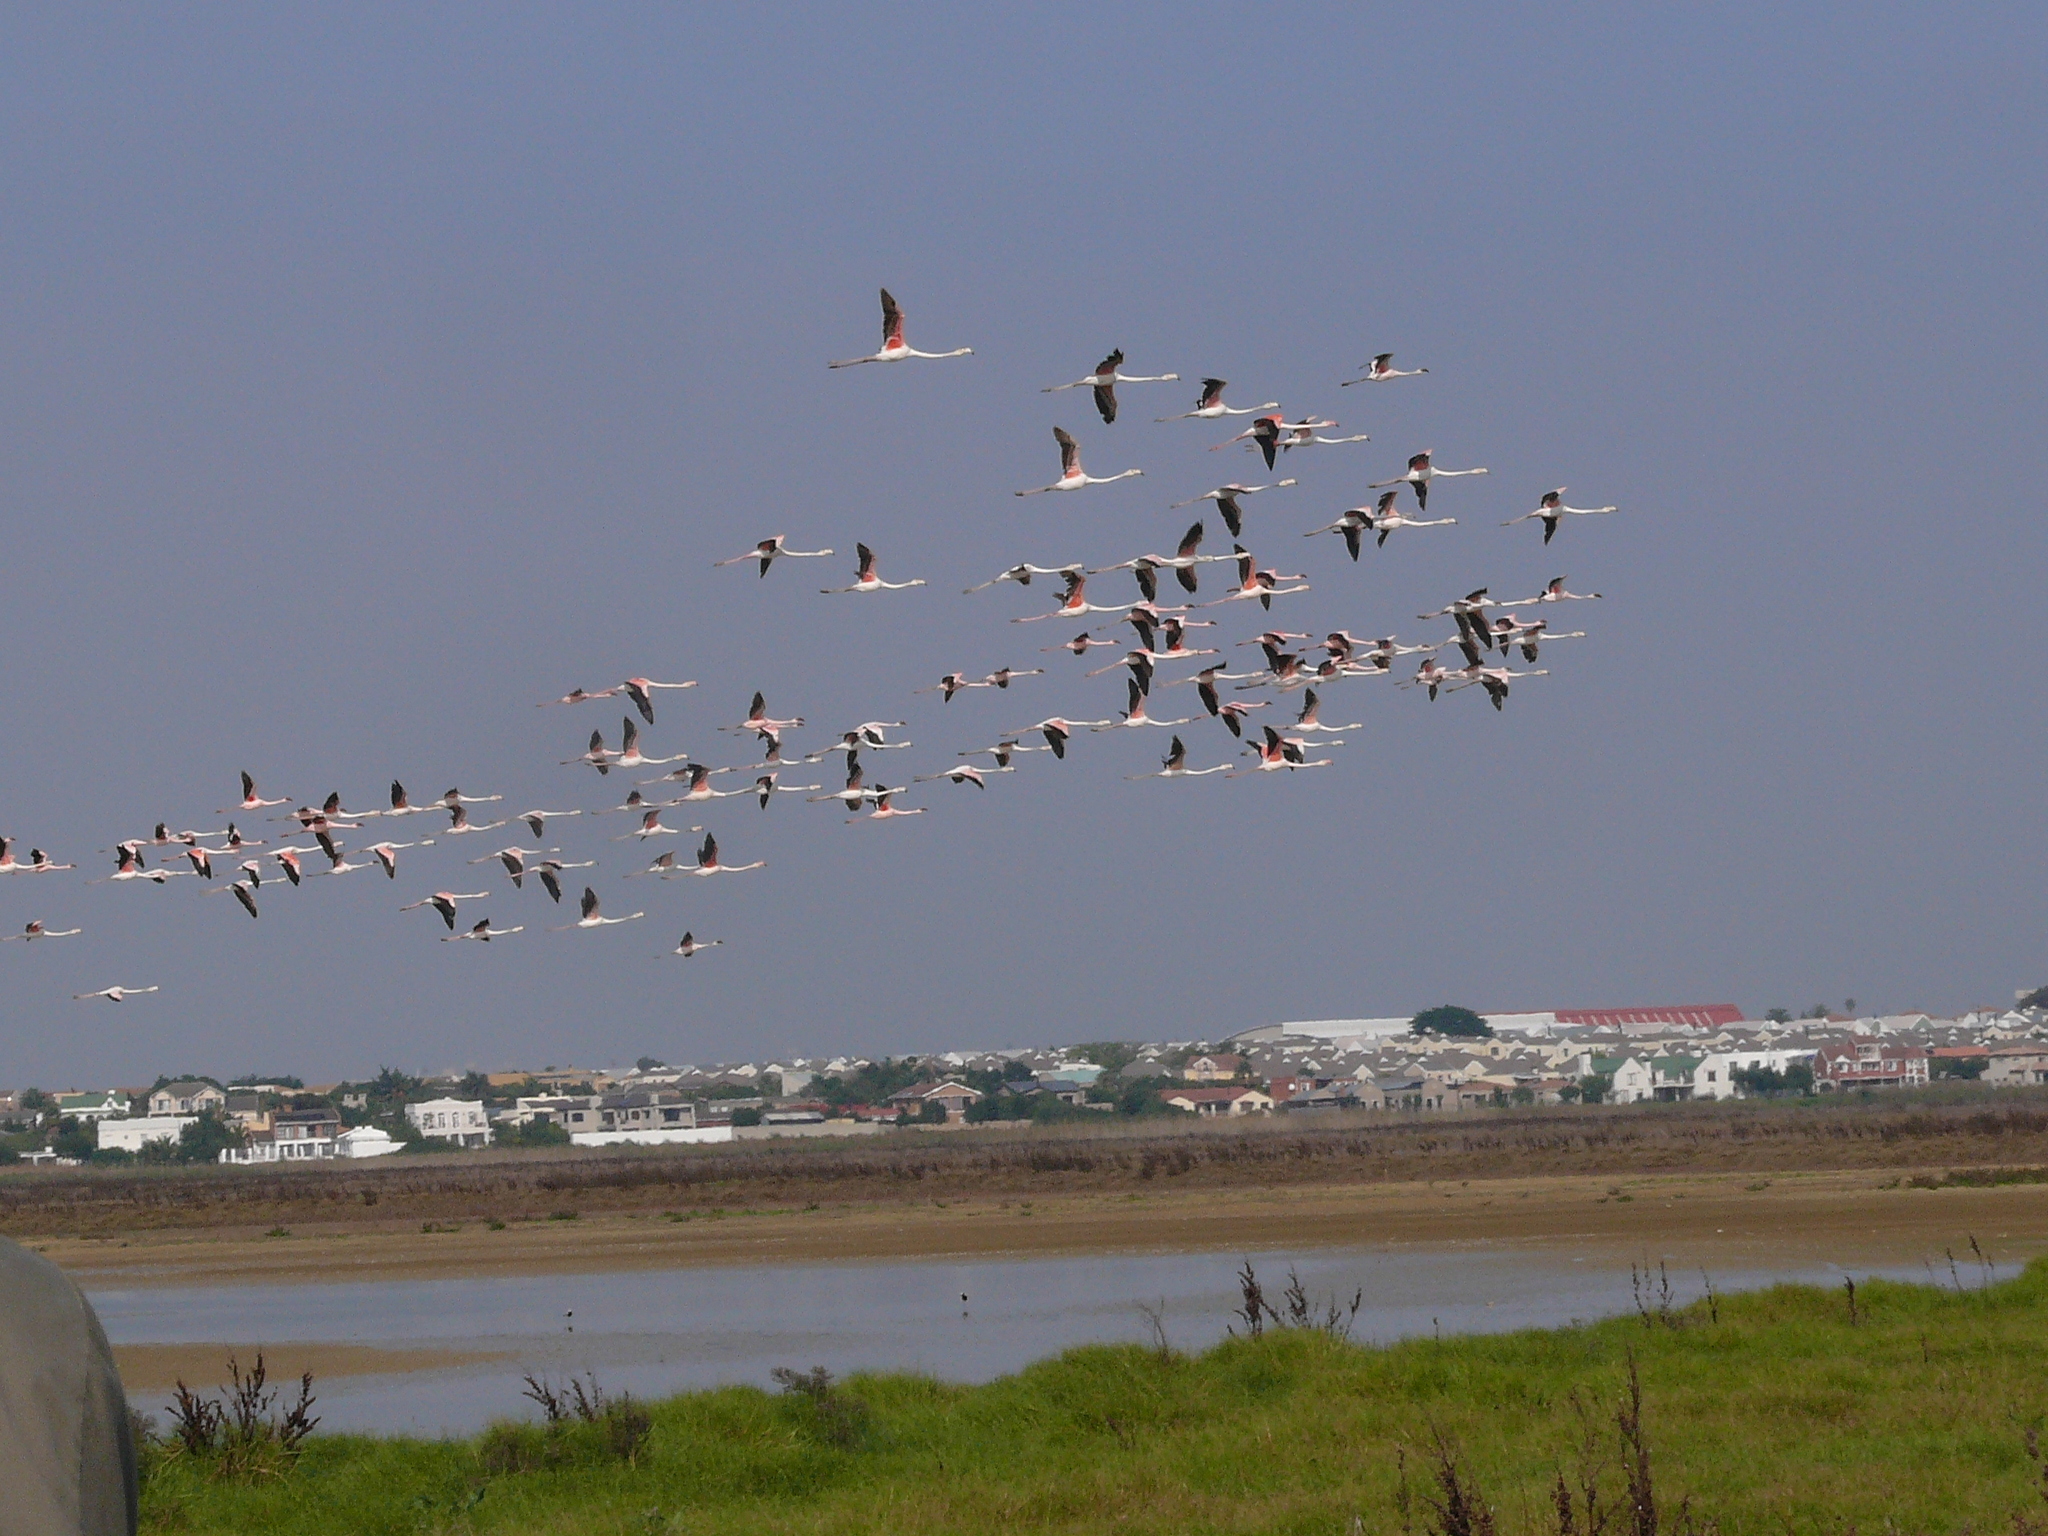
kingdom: Animalia
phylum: Chordata
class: Aves
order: Phoenicopteriformes
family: Phoenicopteridae
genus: Phoenicopterus
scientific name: Phoenicopterus roseus
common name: Greater flamingo
